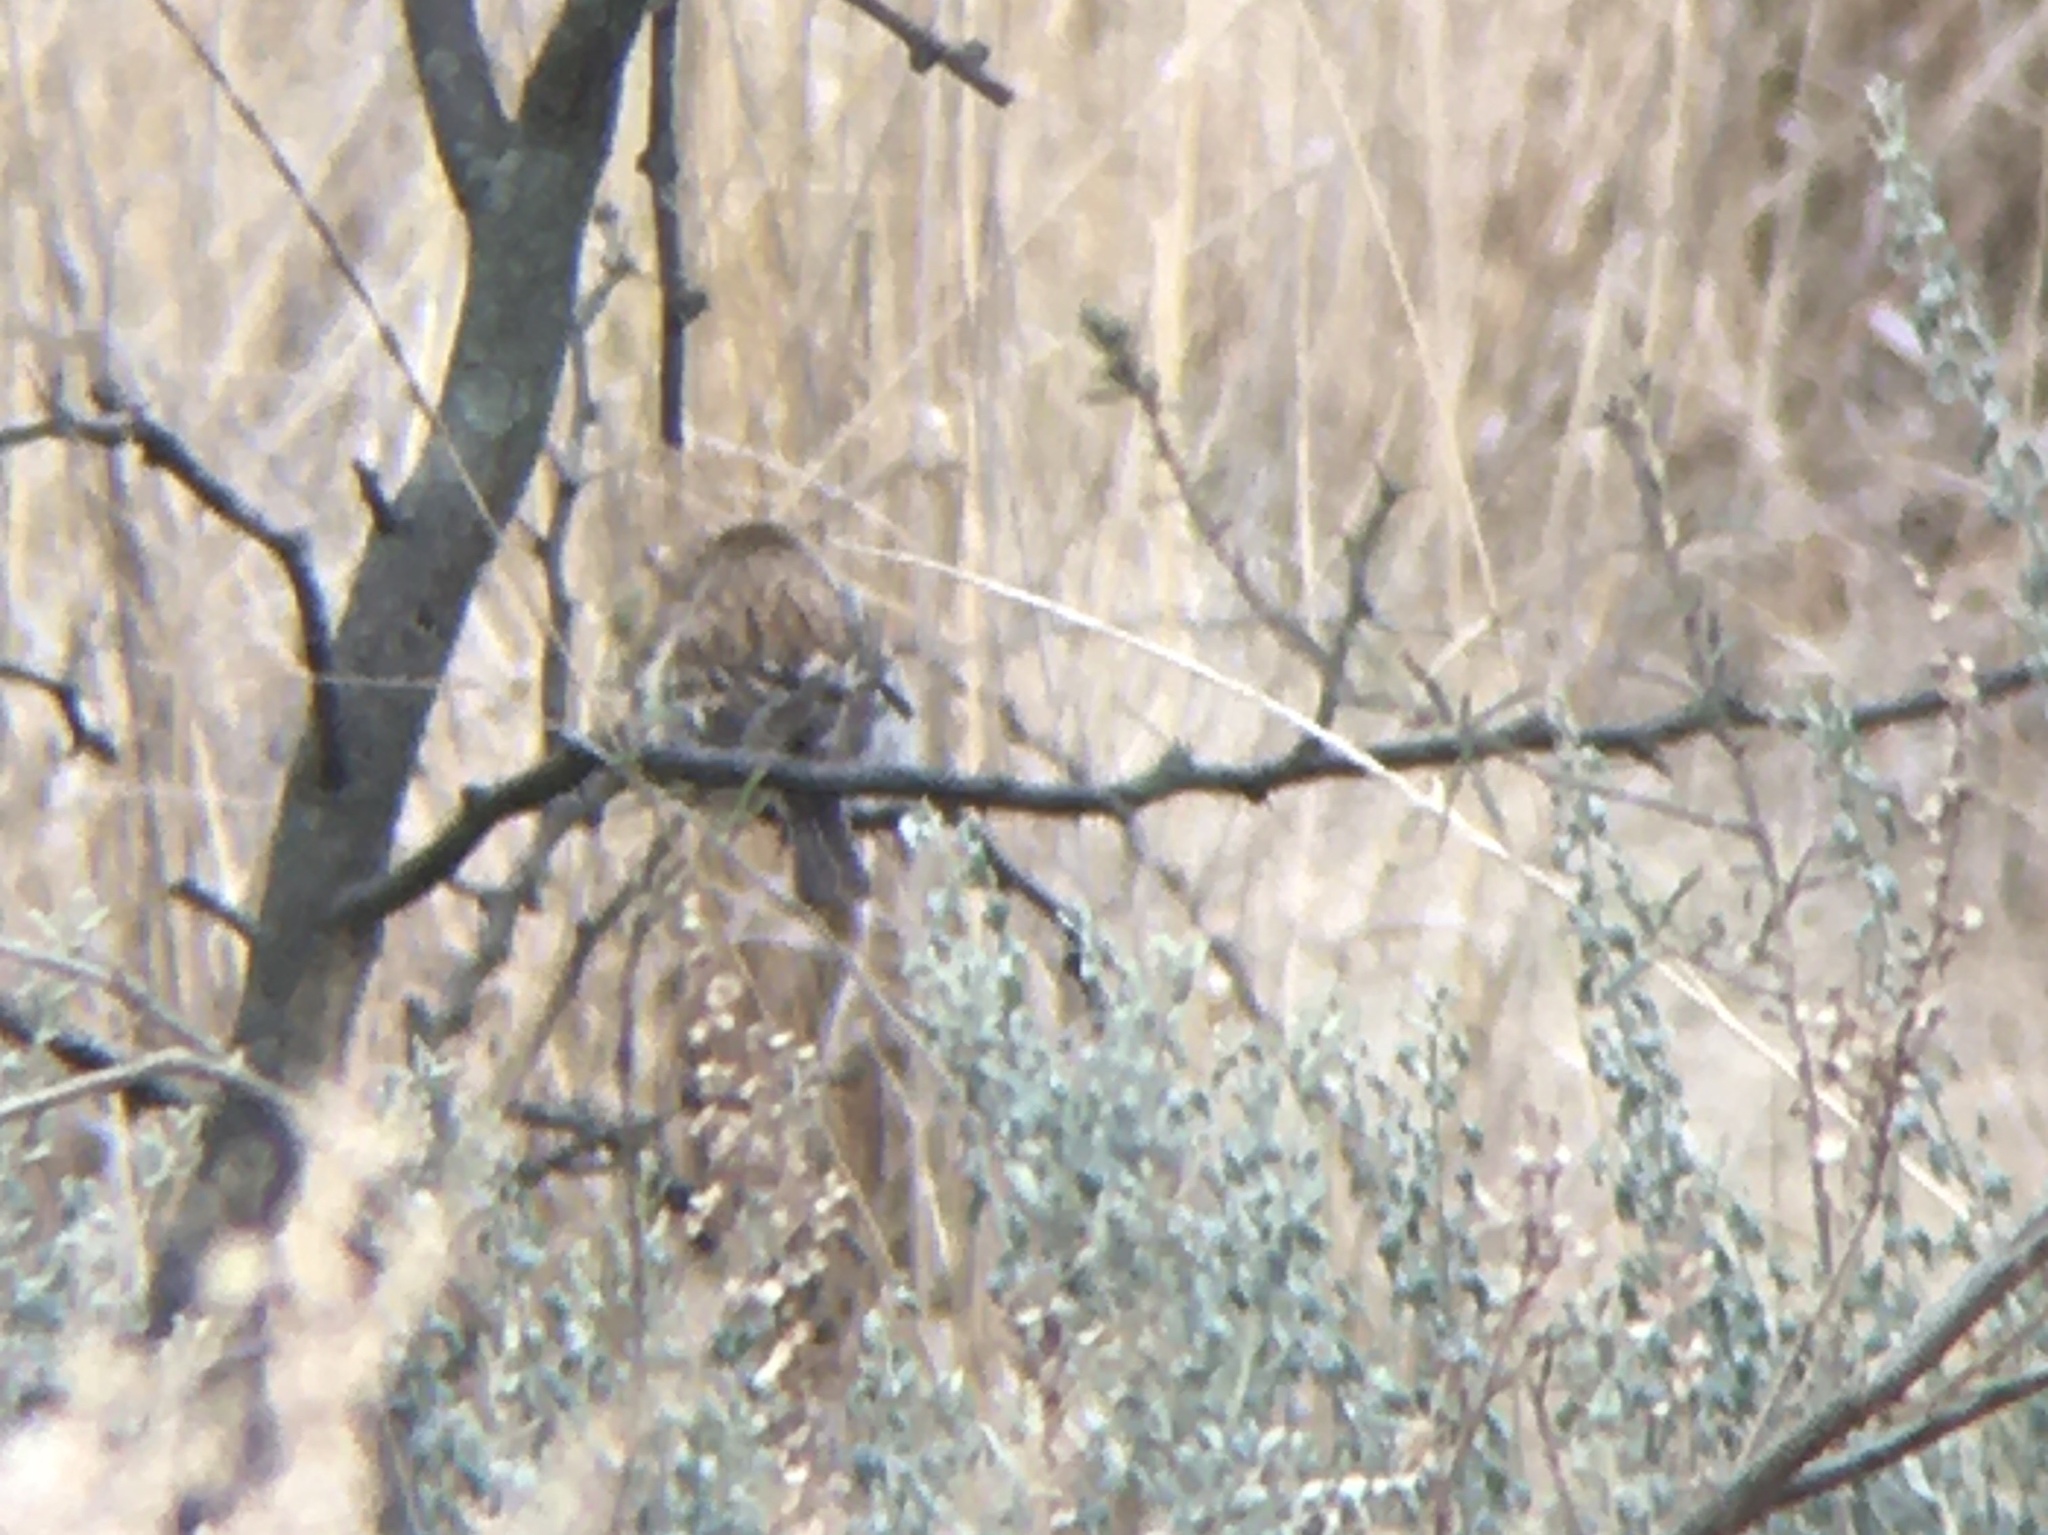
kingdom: Animalia
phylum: Chordata
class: Aves
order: Passeriformes
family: Thraupidae
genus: Catamenia
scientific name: Catamenia analis
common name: Band-tailed seedeater
